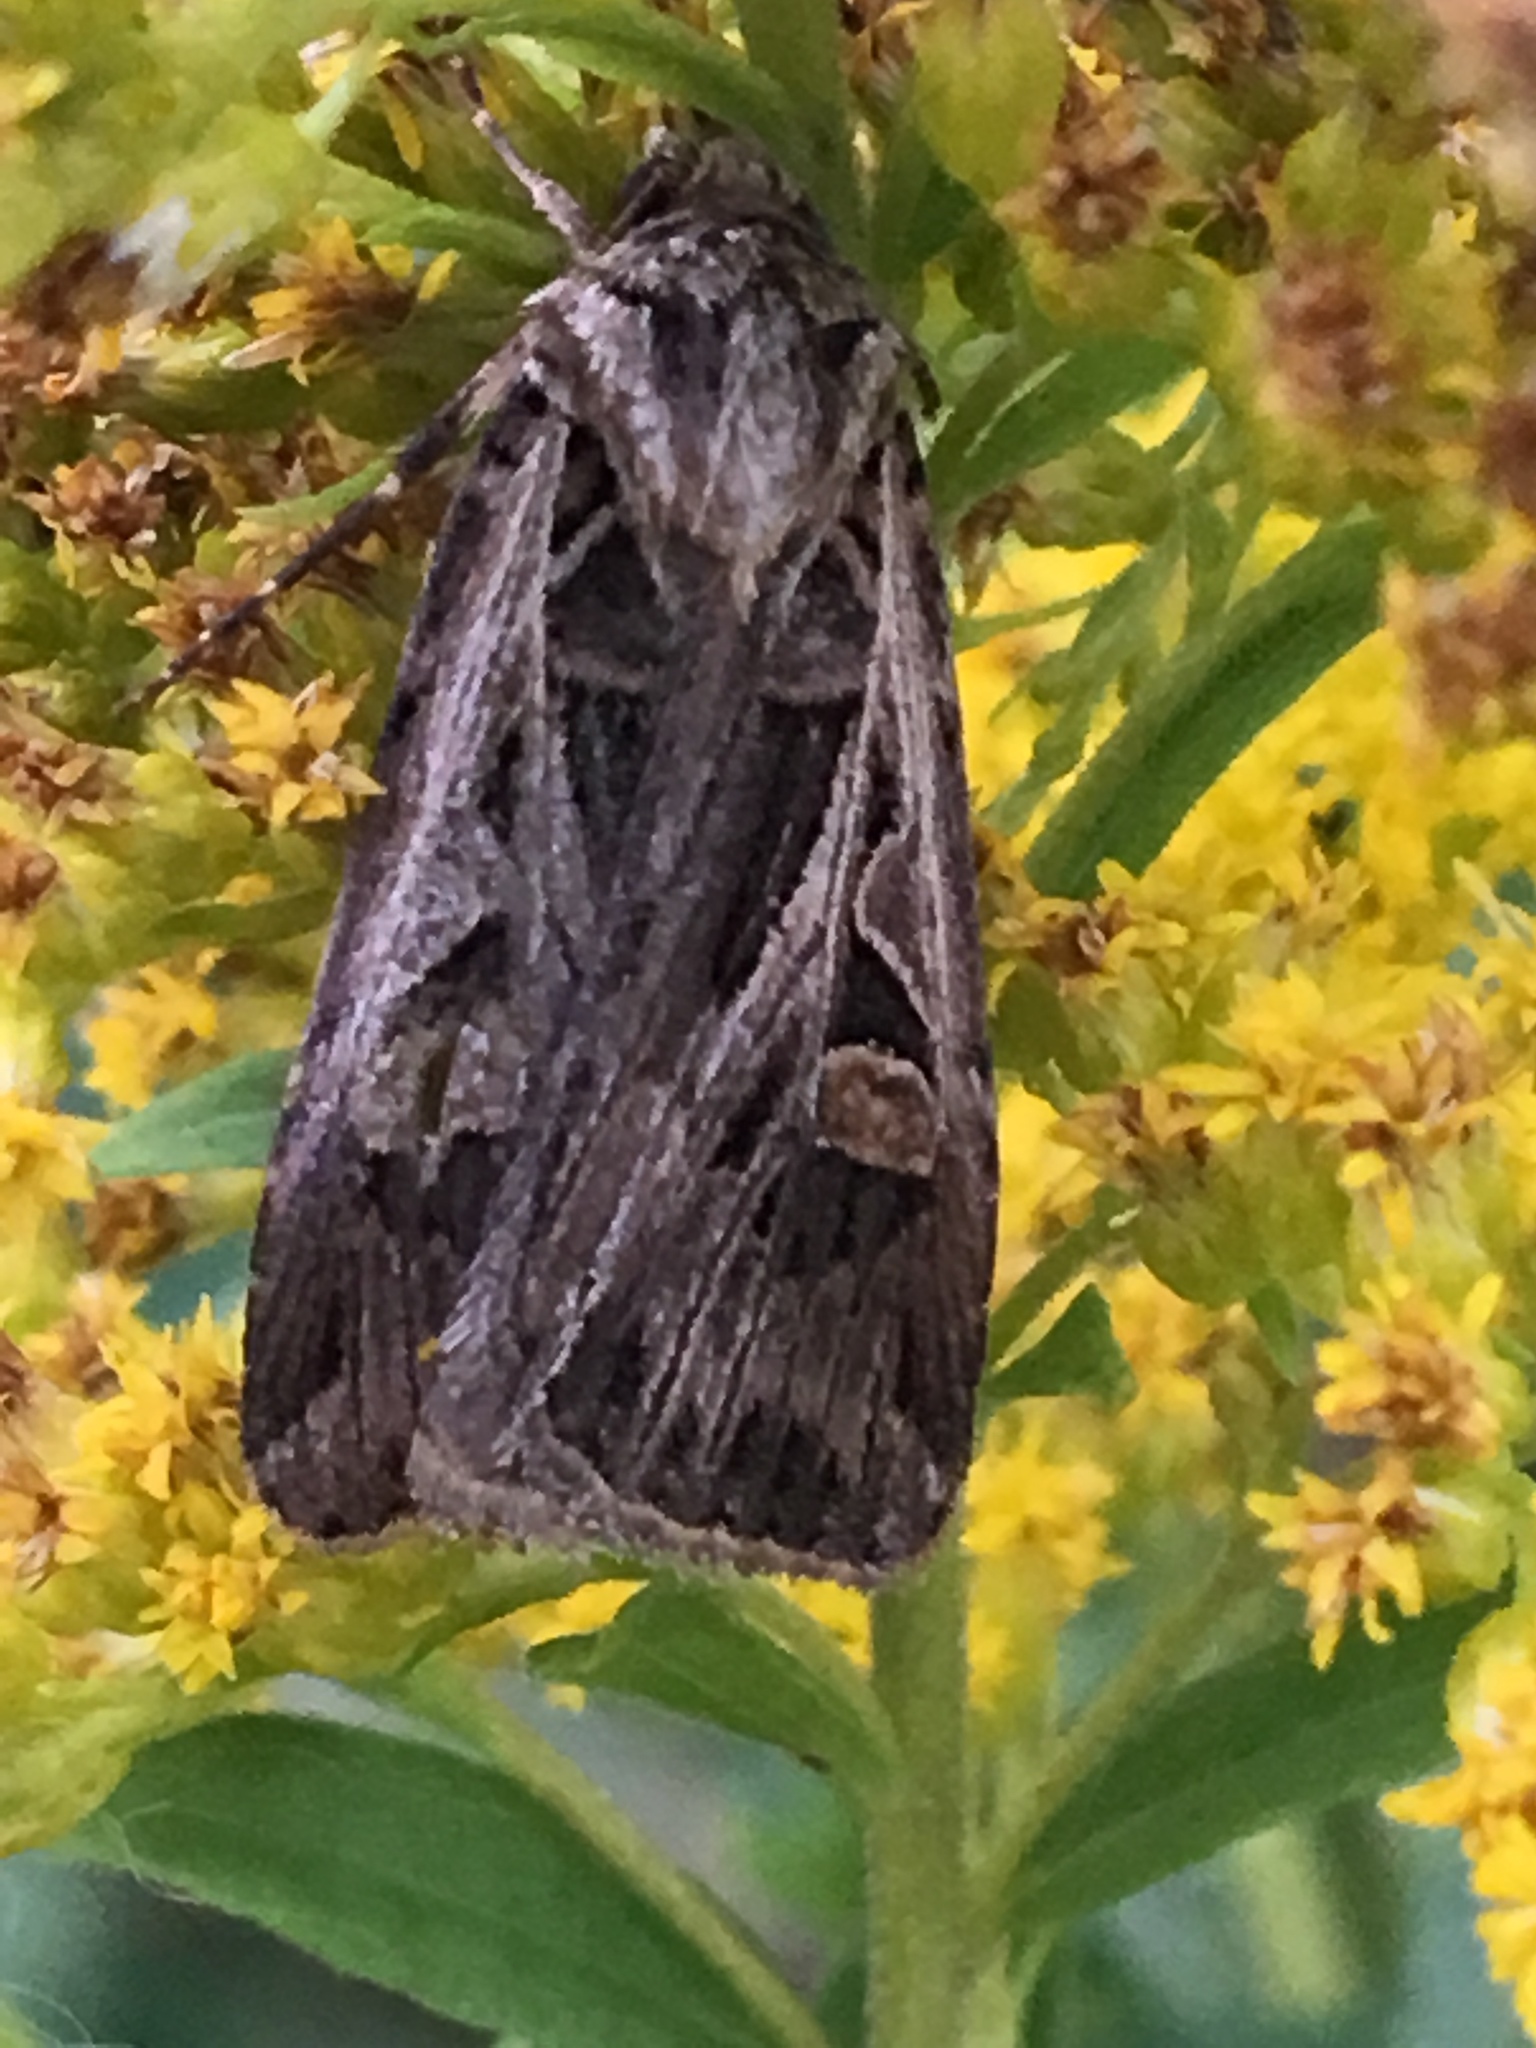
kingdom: Animalia
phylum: Arthropoda
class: Insecta
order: Lepidoptera
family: Noctuidae
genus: Feltia
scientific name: Feltia jaculifera
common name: Dingy cutworm moth
